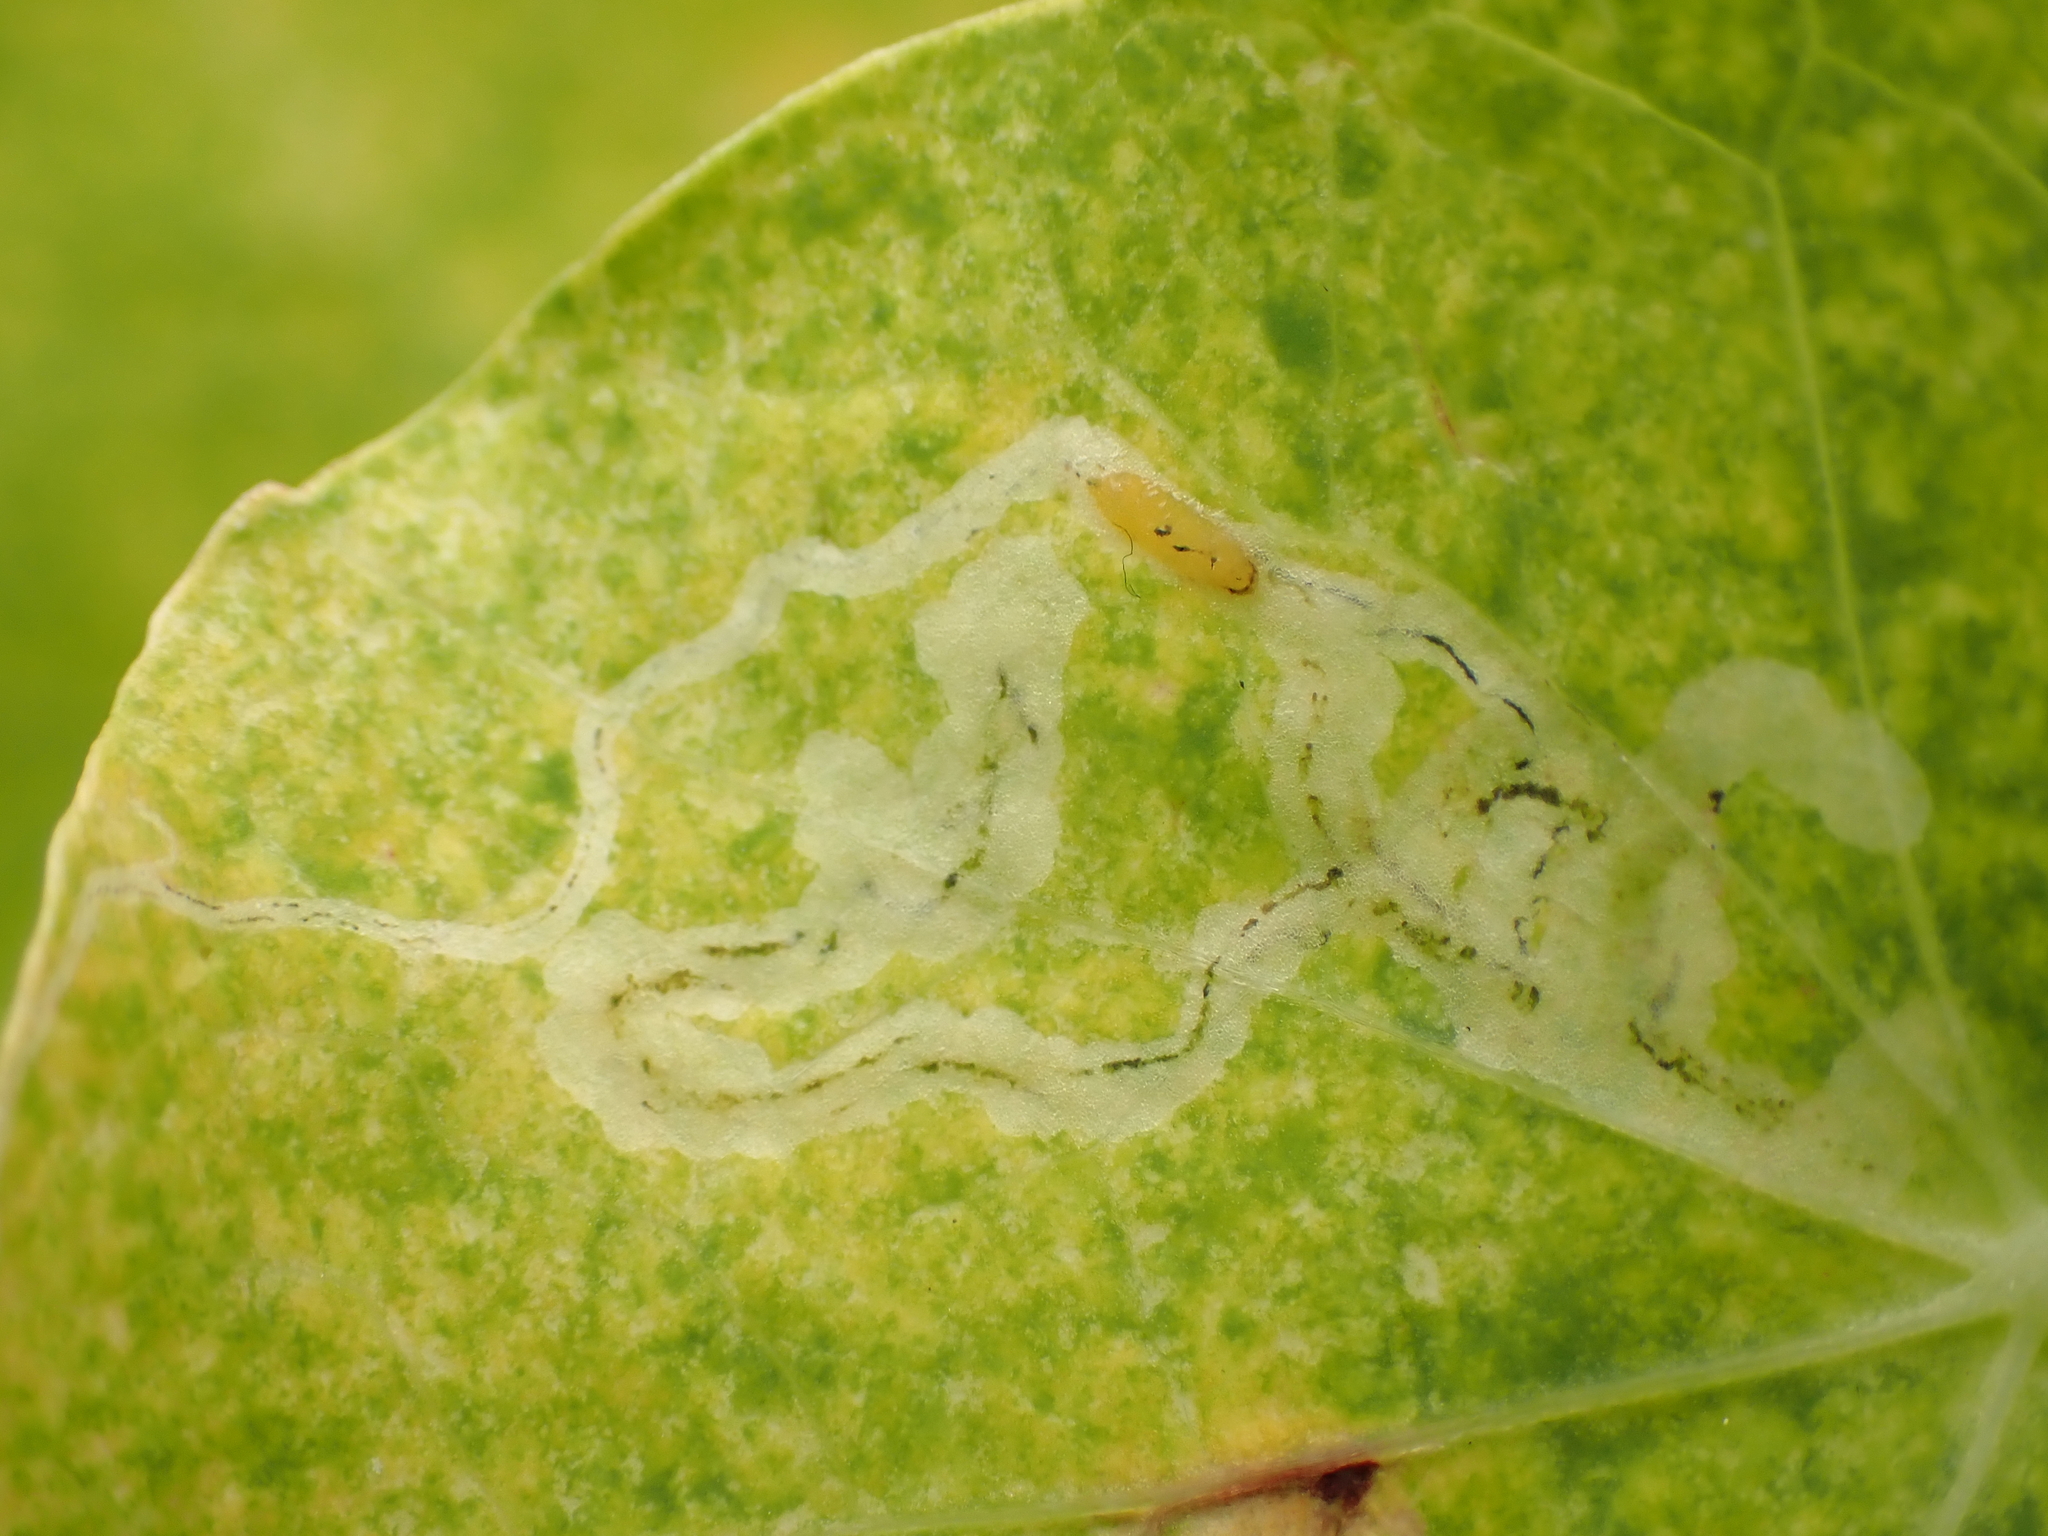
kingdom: Animalia
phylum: Arthropoda
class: Insecta
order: Diptera
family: Agromyzidae
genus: Liriomyza
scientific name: Liriomyza brassicae
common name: Serpentine leaf miner
